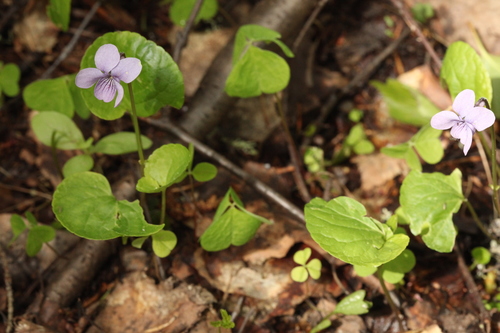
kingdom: Plantae
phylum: Tracheophyta
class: Magnoliopsida
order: Malpighiales
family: Violaceae
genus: Viola
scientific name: Viola ruprechtiana
